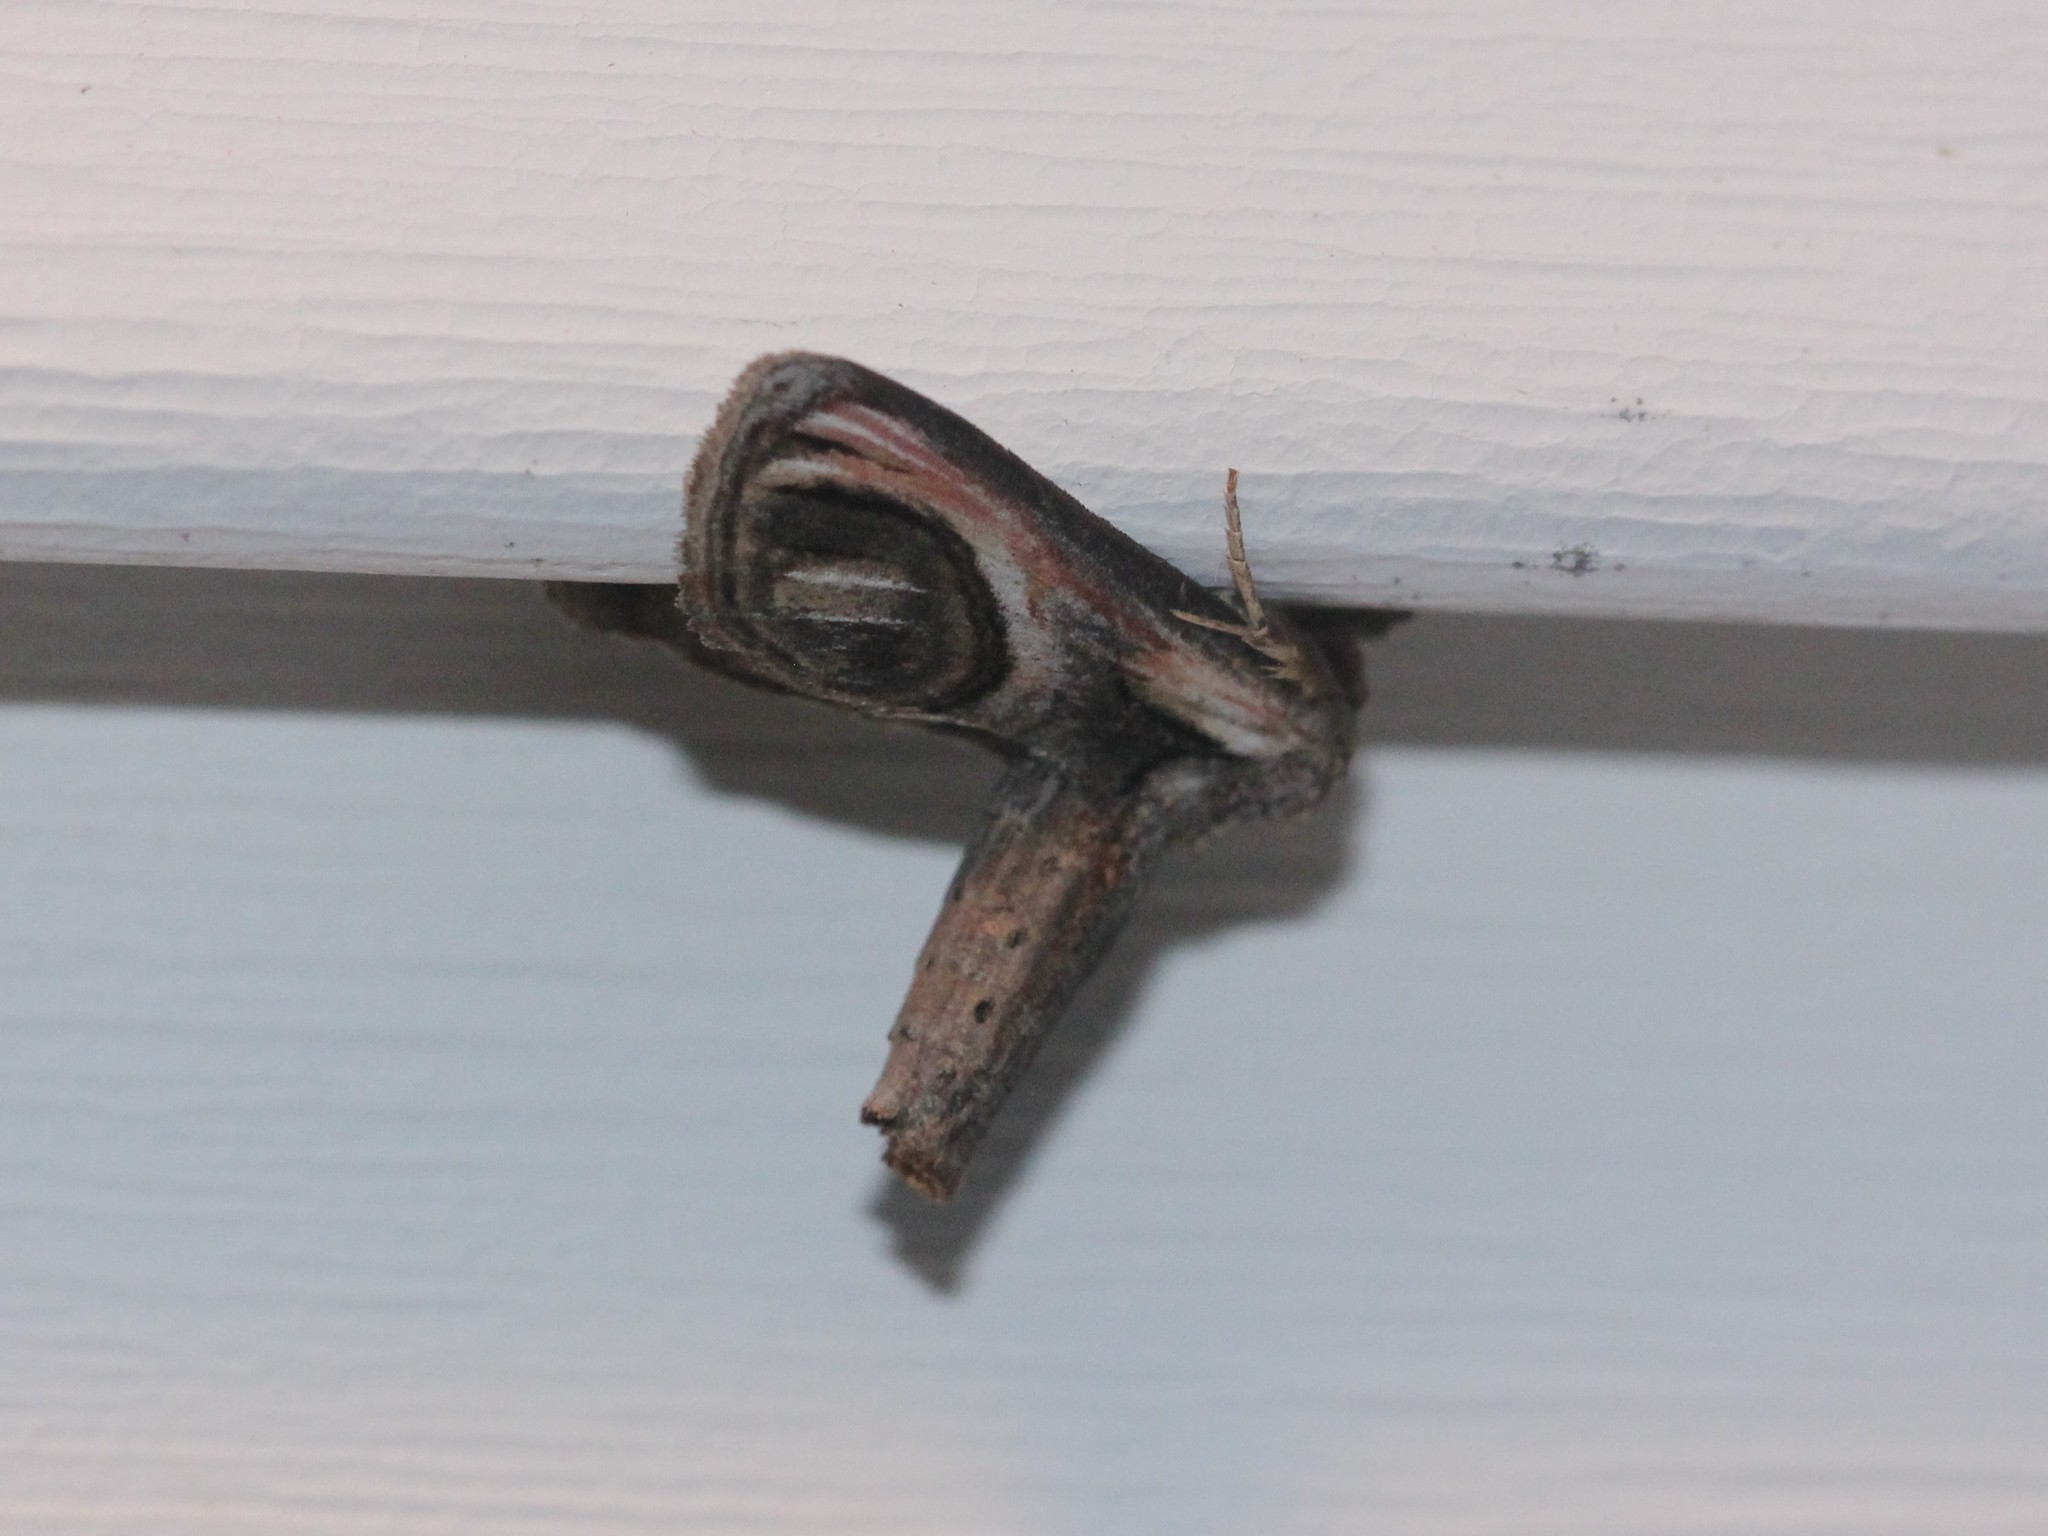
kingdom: Animalia
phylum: Arthropoda
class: Insecta
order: Lepidoptera
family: Euteliidae
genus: Paectes
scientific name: Paectes oculatrix
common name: Eyed paectes moth
